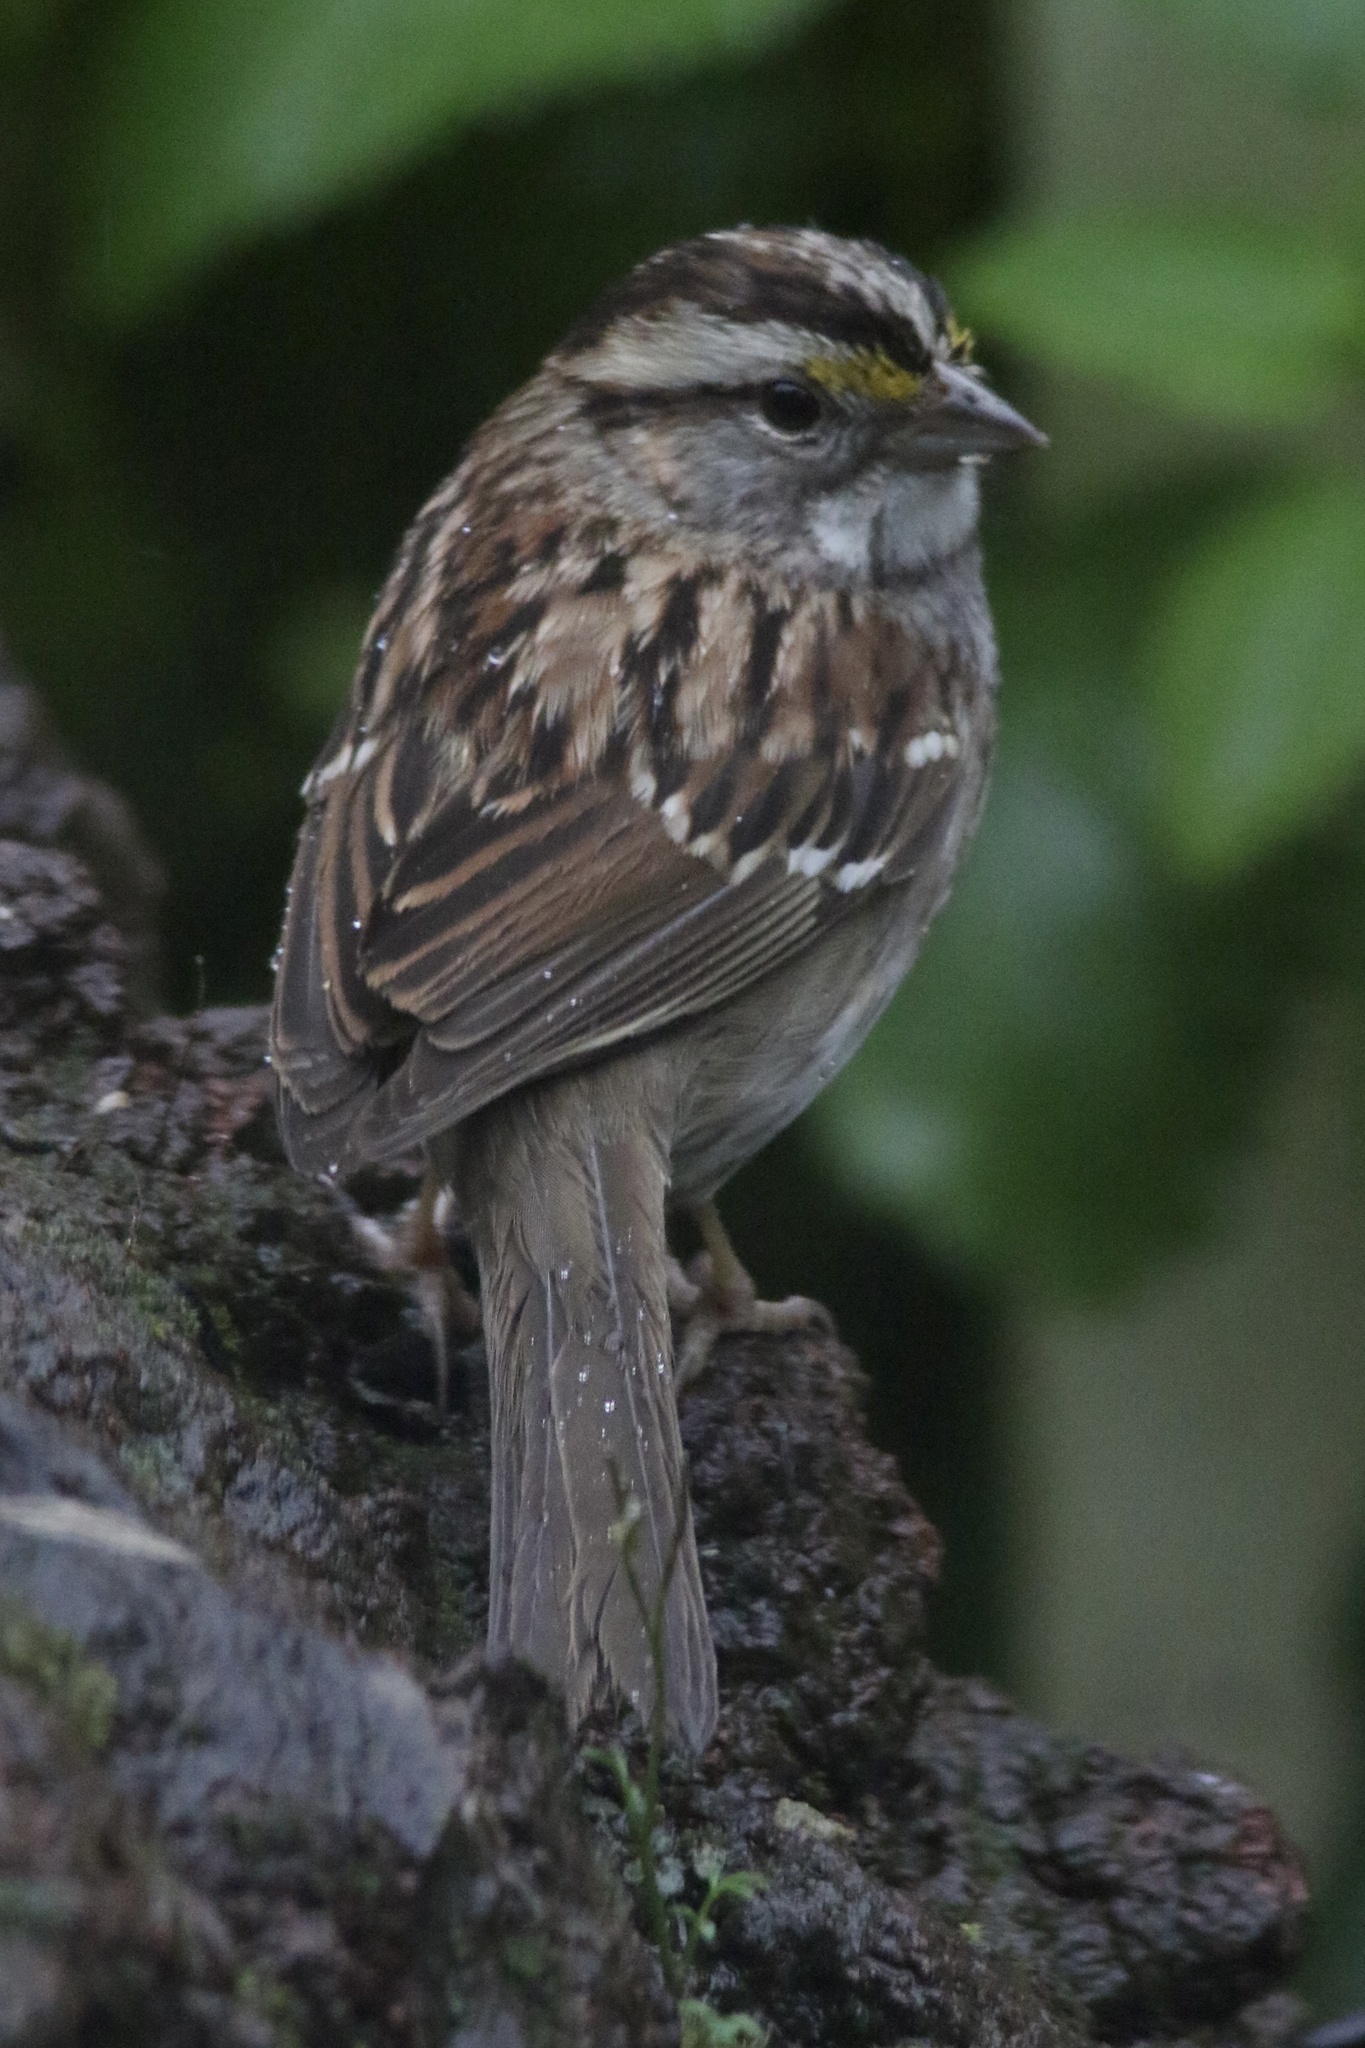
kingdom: Animalia
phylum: Chordata
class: Aves
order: Passeriformes
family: Passerellidae
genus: Zonotrichia
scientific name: Zonotrichia albicollis
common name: White-throated sparrow
